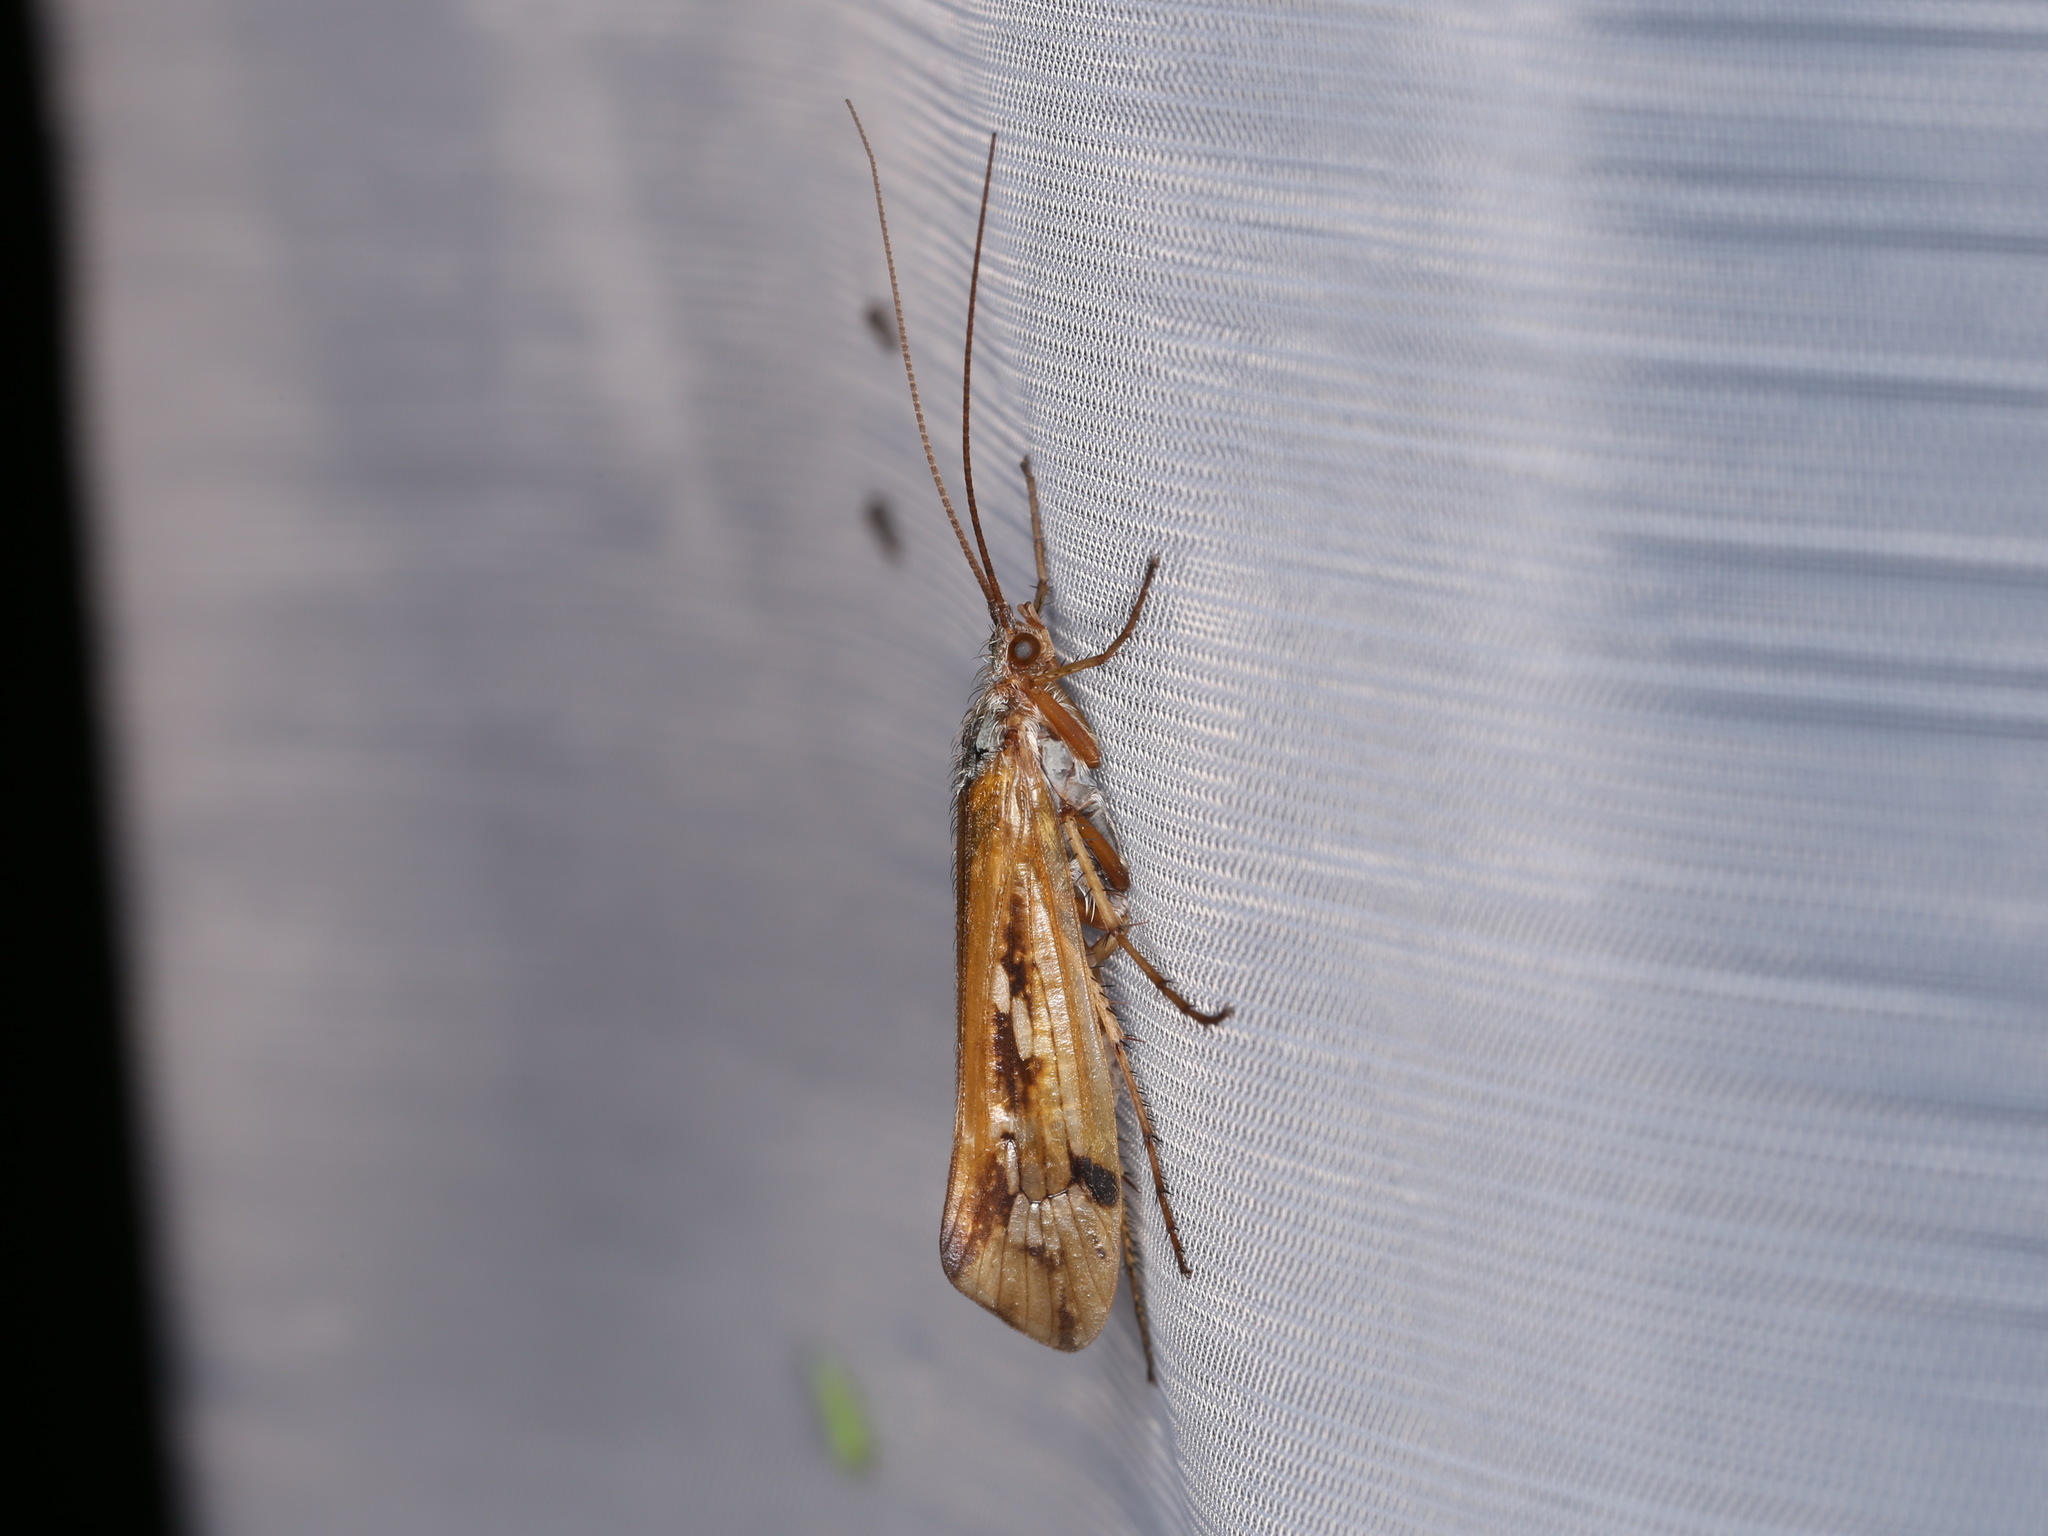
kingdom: Animalia
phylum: Arthropoda
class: Insecta
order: Trichoptera
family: Limnephilidae
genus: Limnephilus
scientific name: Limnephilus binotatus
